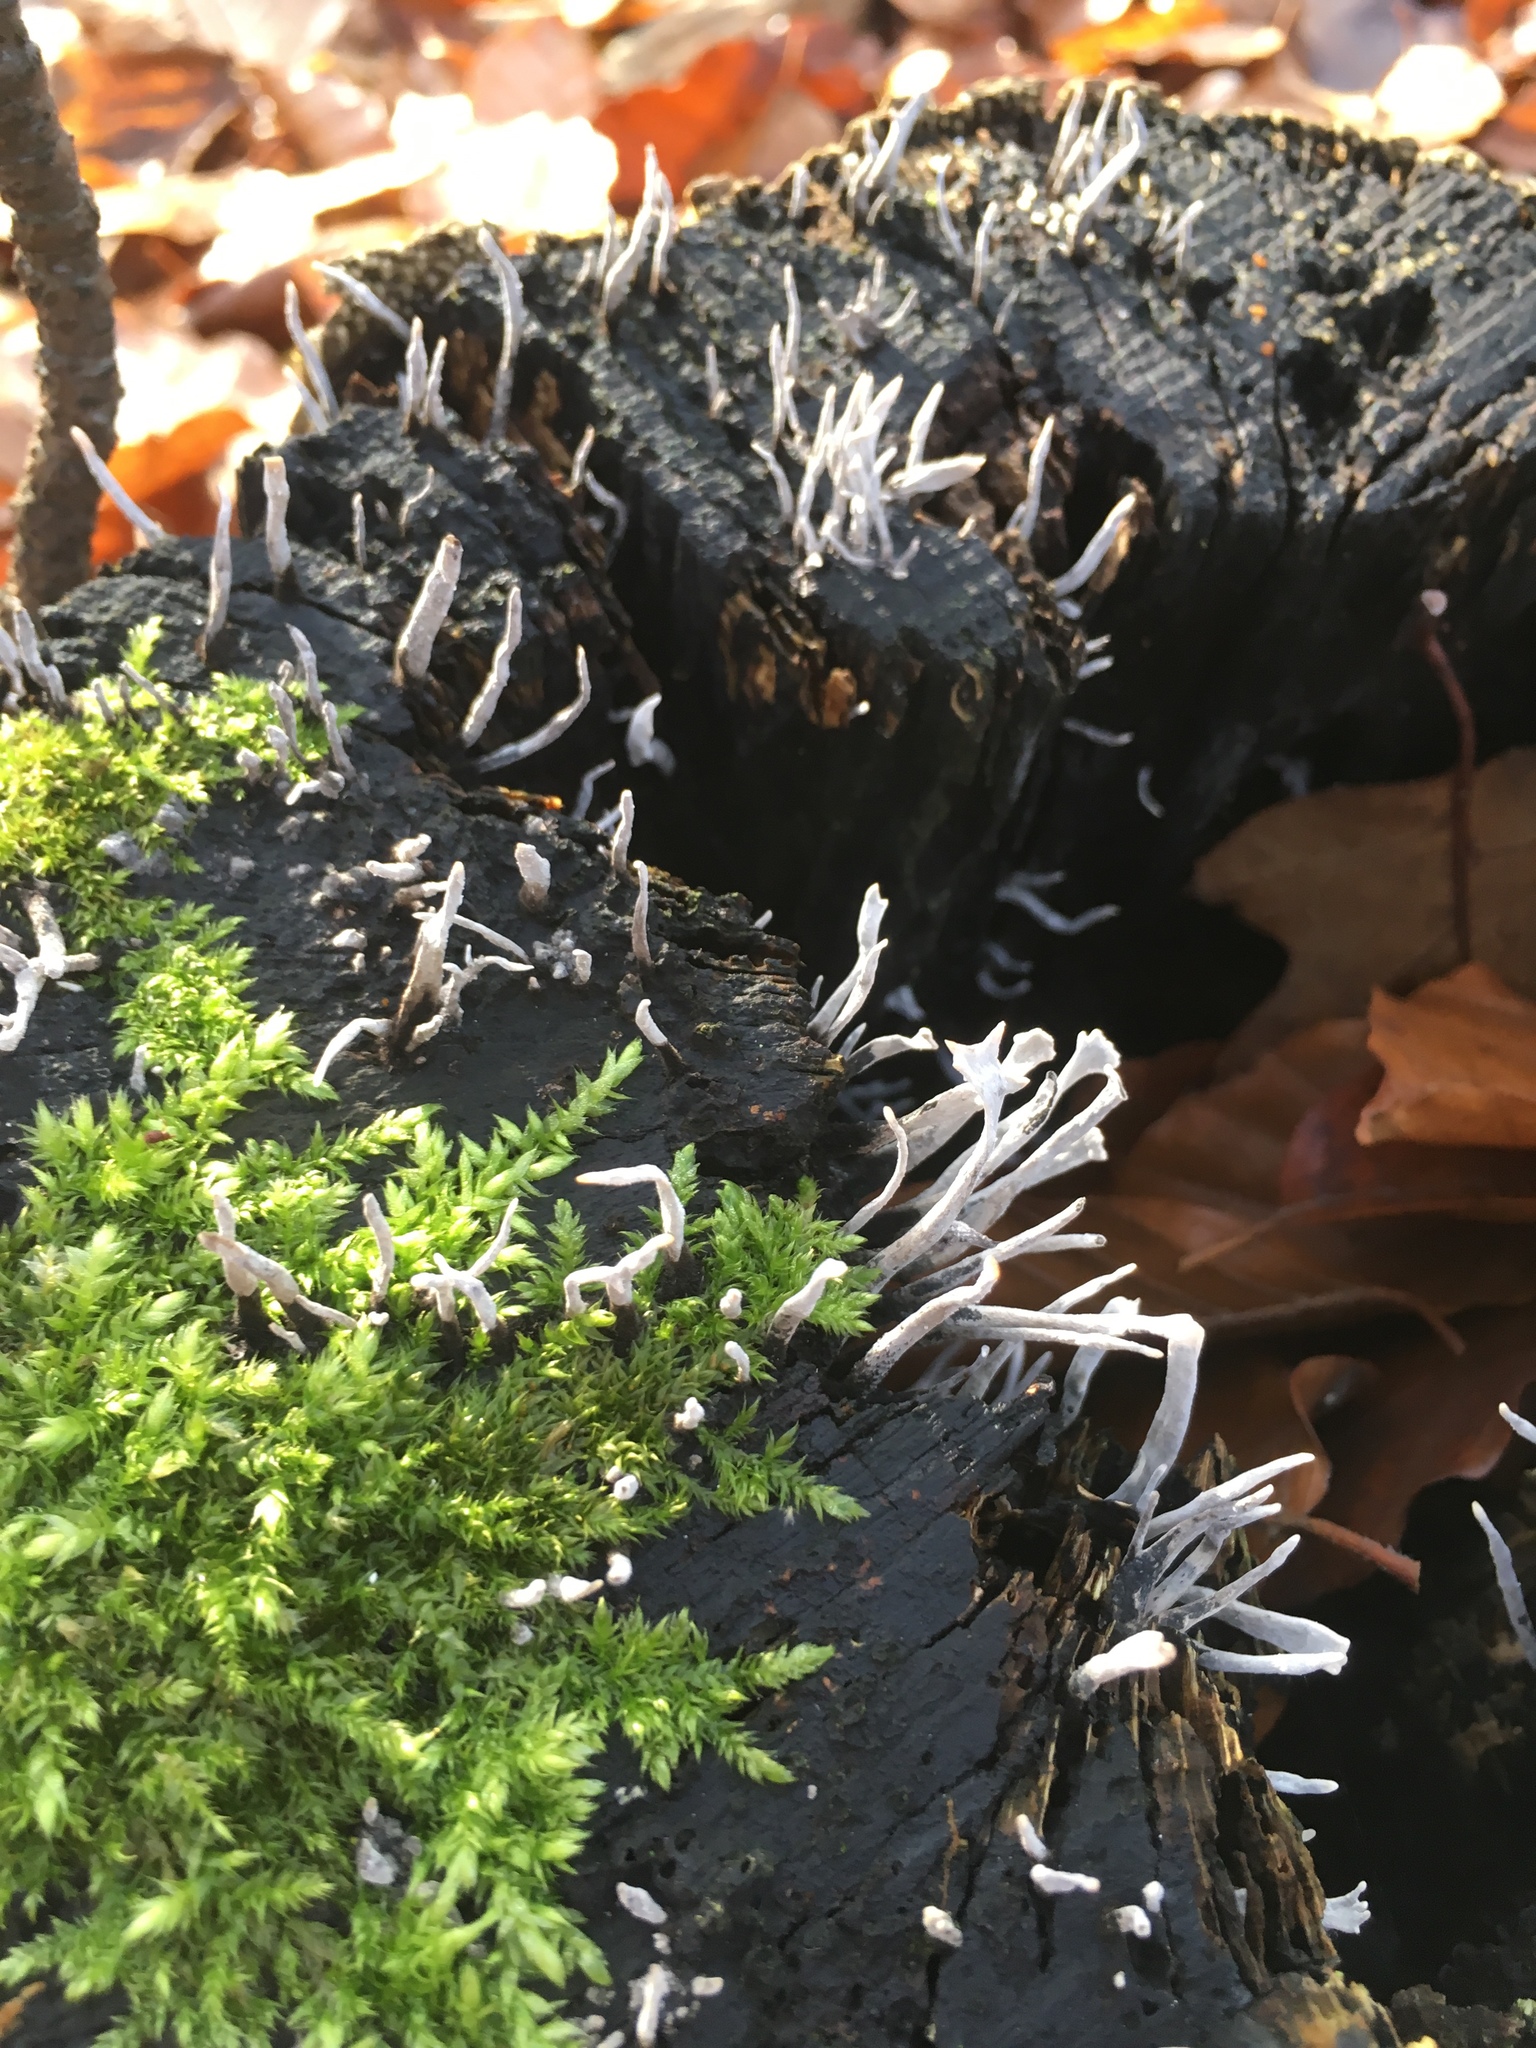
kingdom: Fungi
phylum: Ascomycota
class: Sordariomycetes
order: Xylariales
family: Xylariaceae
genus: Xylaria
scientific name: Xylaria hypoxylon
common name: Candle-snuff fungus
